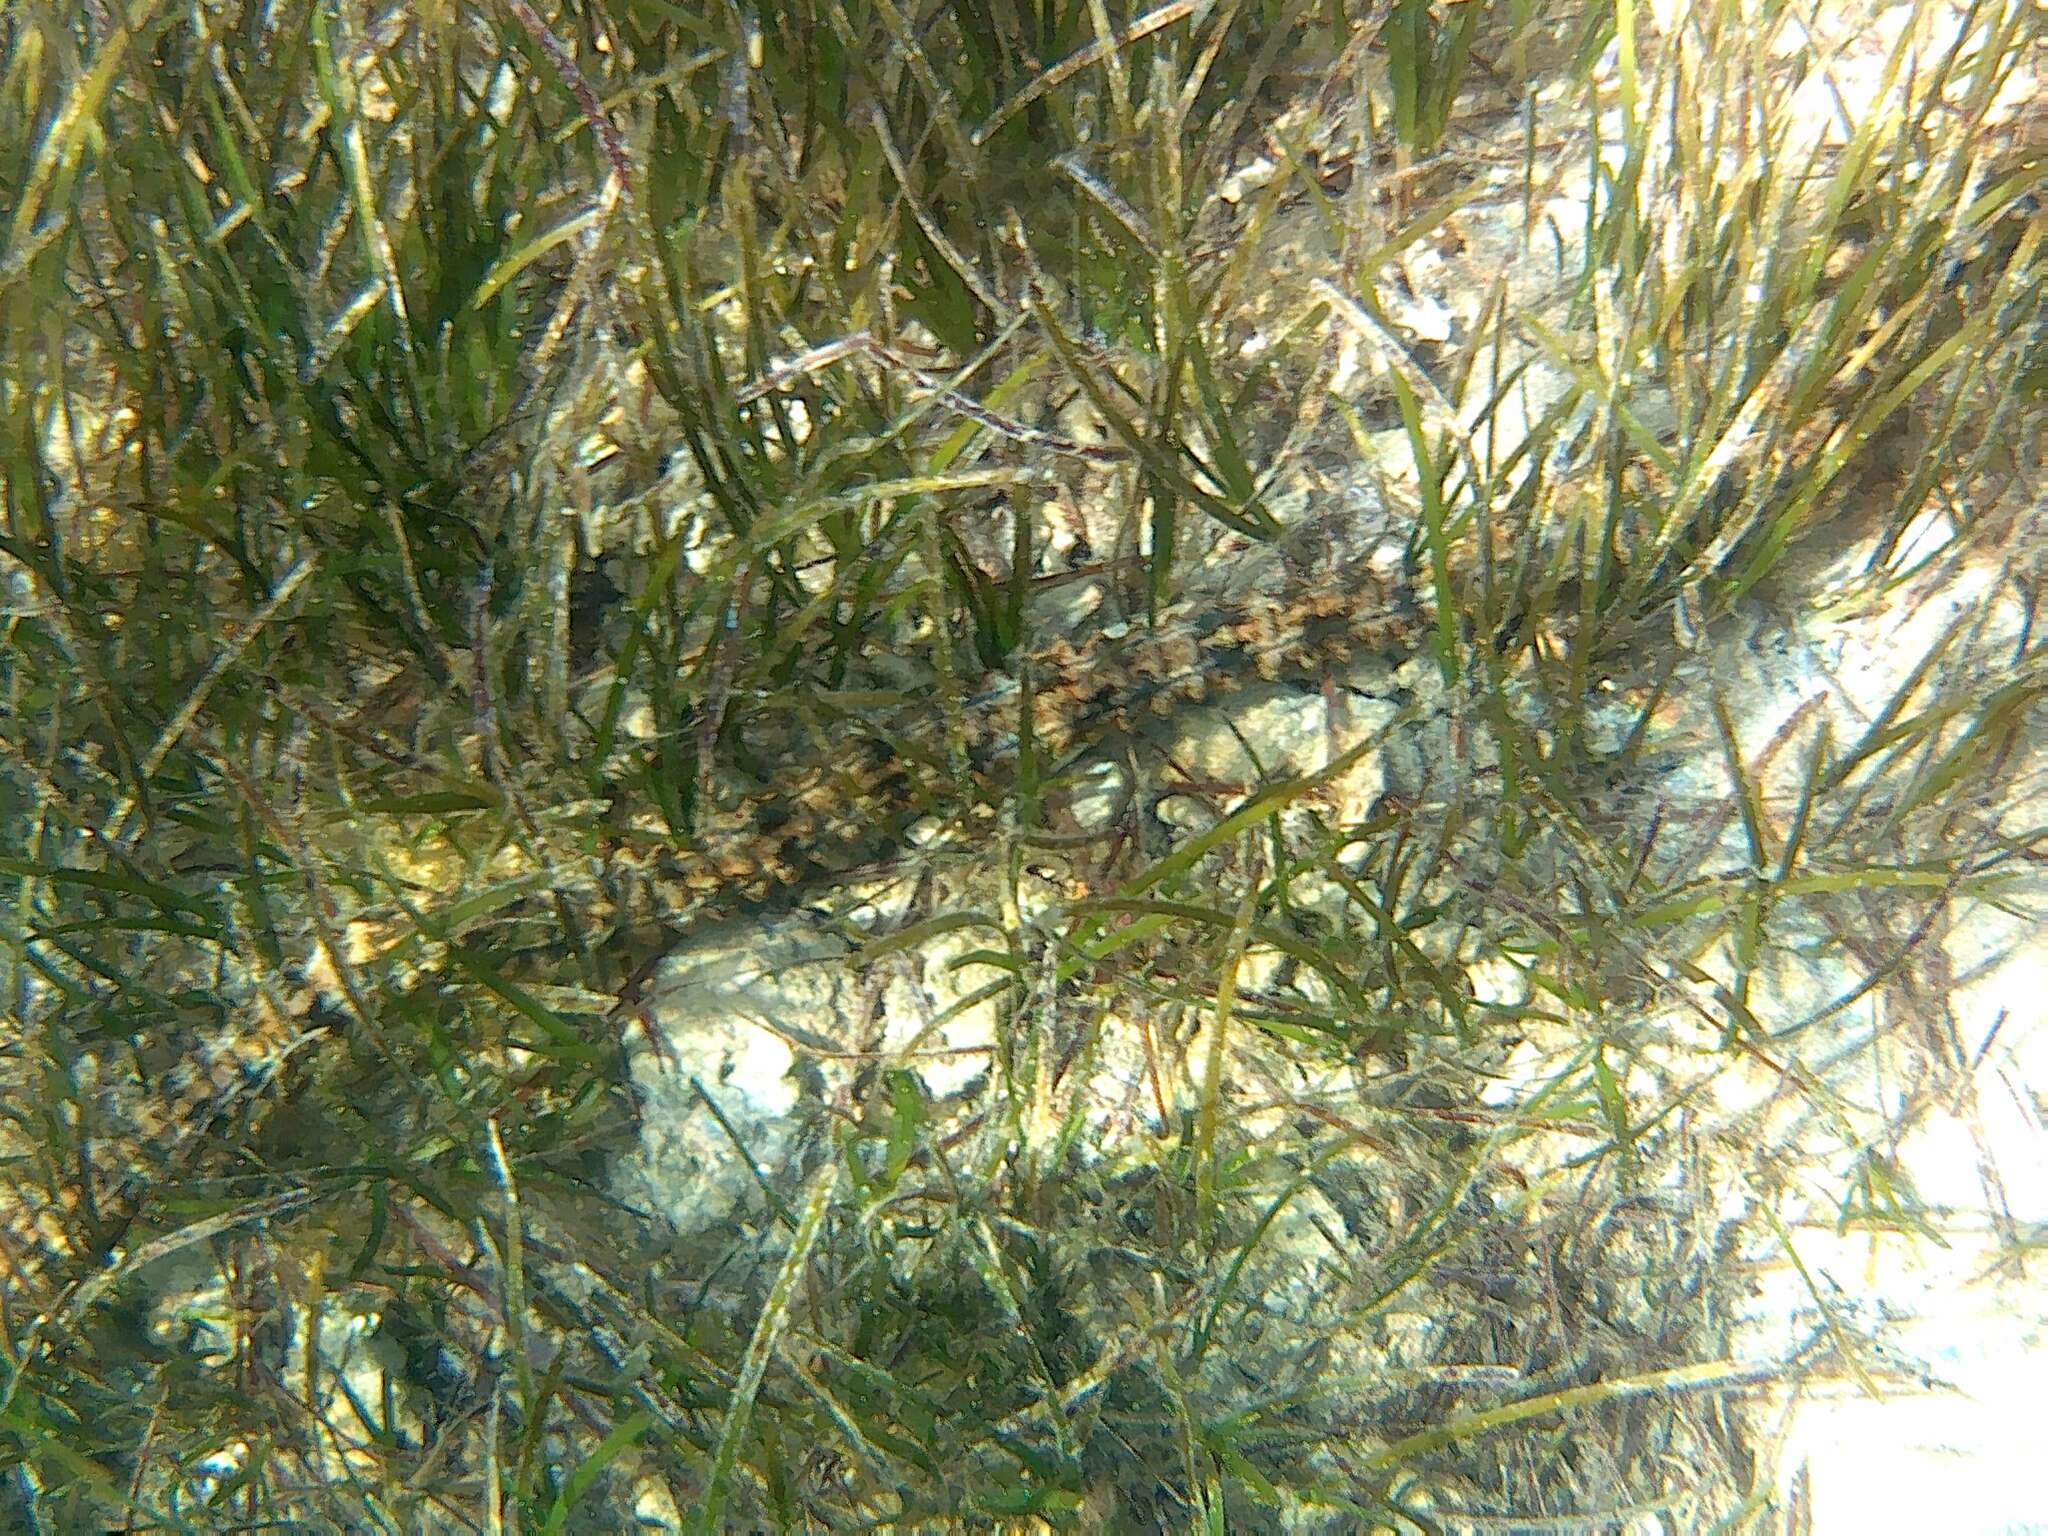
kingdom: Animalia
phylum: Echinodermata
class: Holothuroidea
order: Apodida
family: Synaptidae
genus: Synapta
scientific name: Synapta maculata
